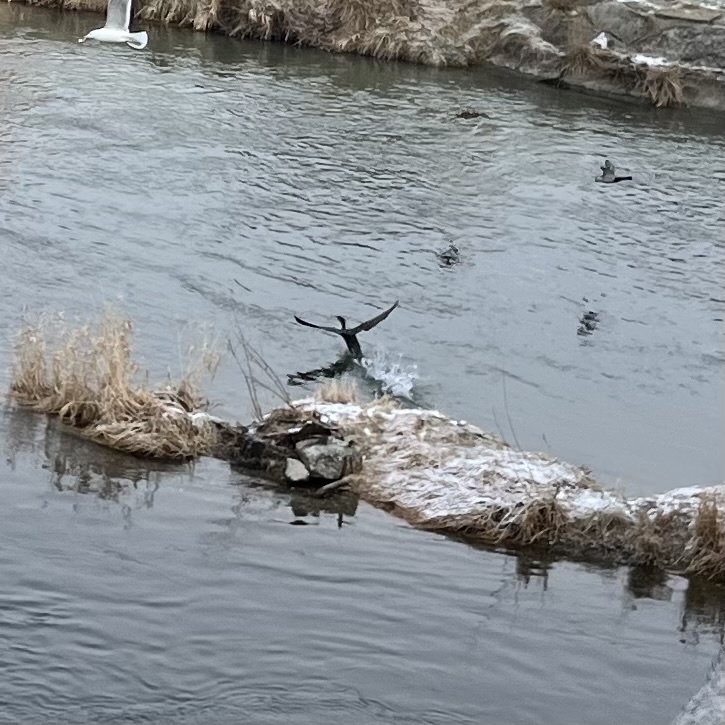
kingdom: Animalia
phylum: Chordata
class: Aves
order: Suliformes
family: Phalacrocoracidae
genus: Phalacrocorax
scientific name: Phalacrocorax carbo
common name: Great cormorant
